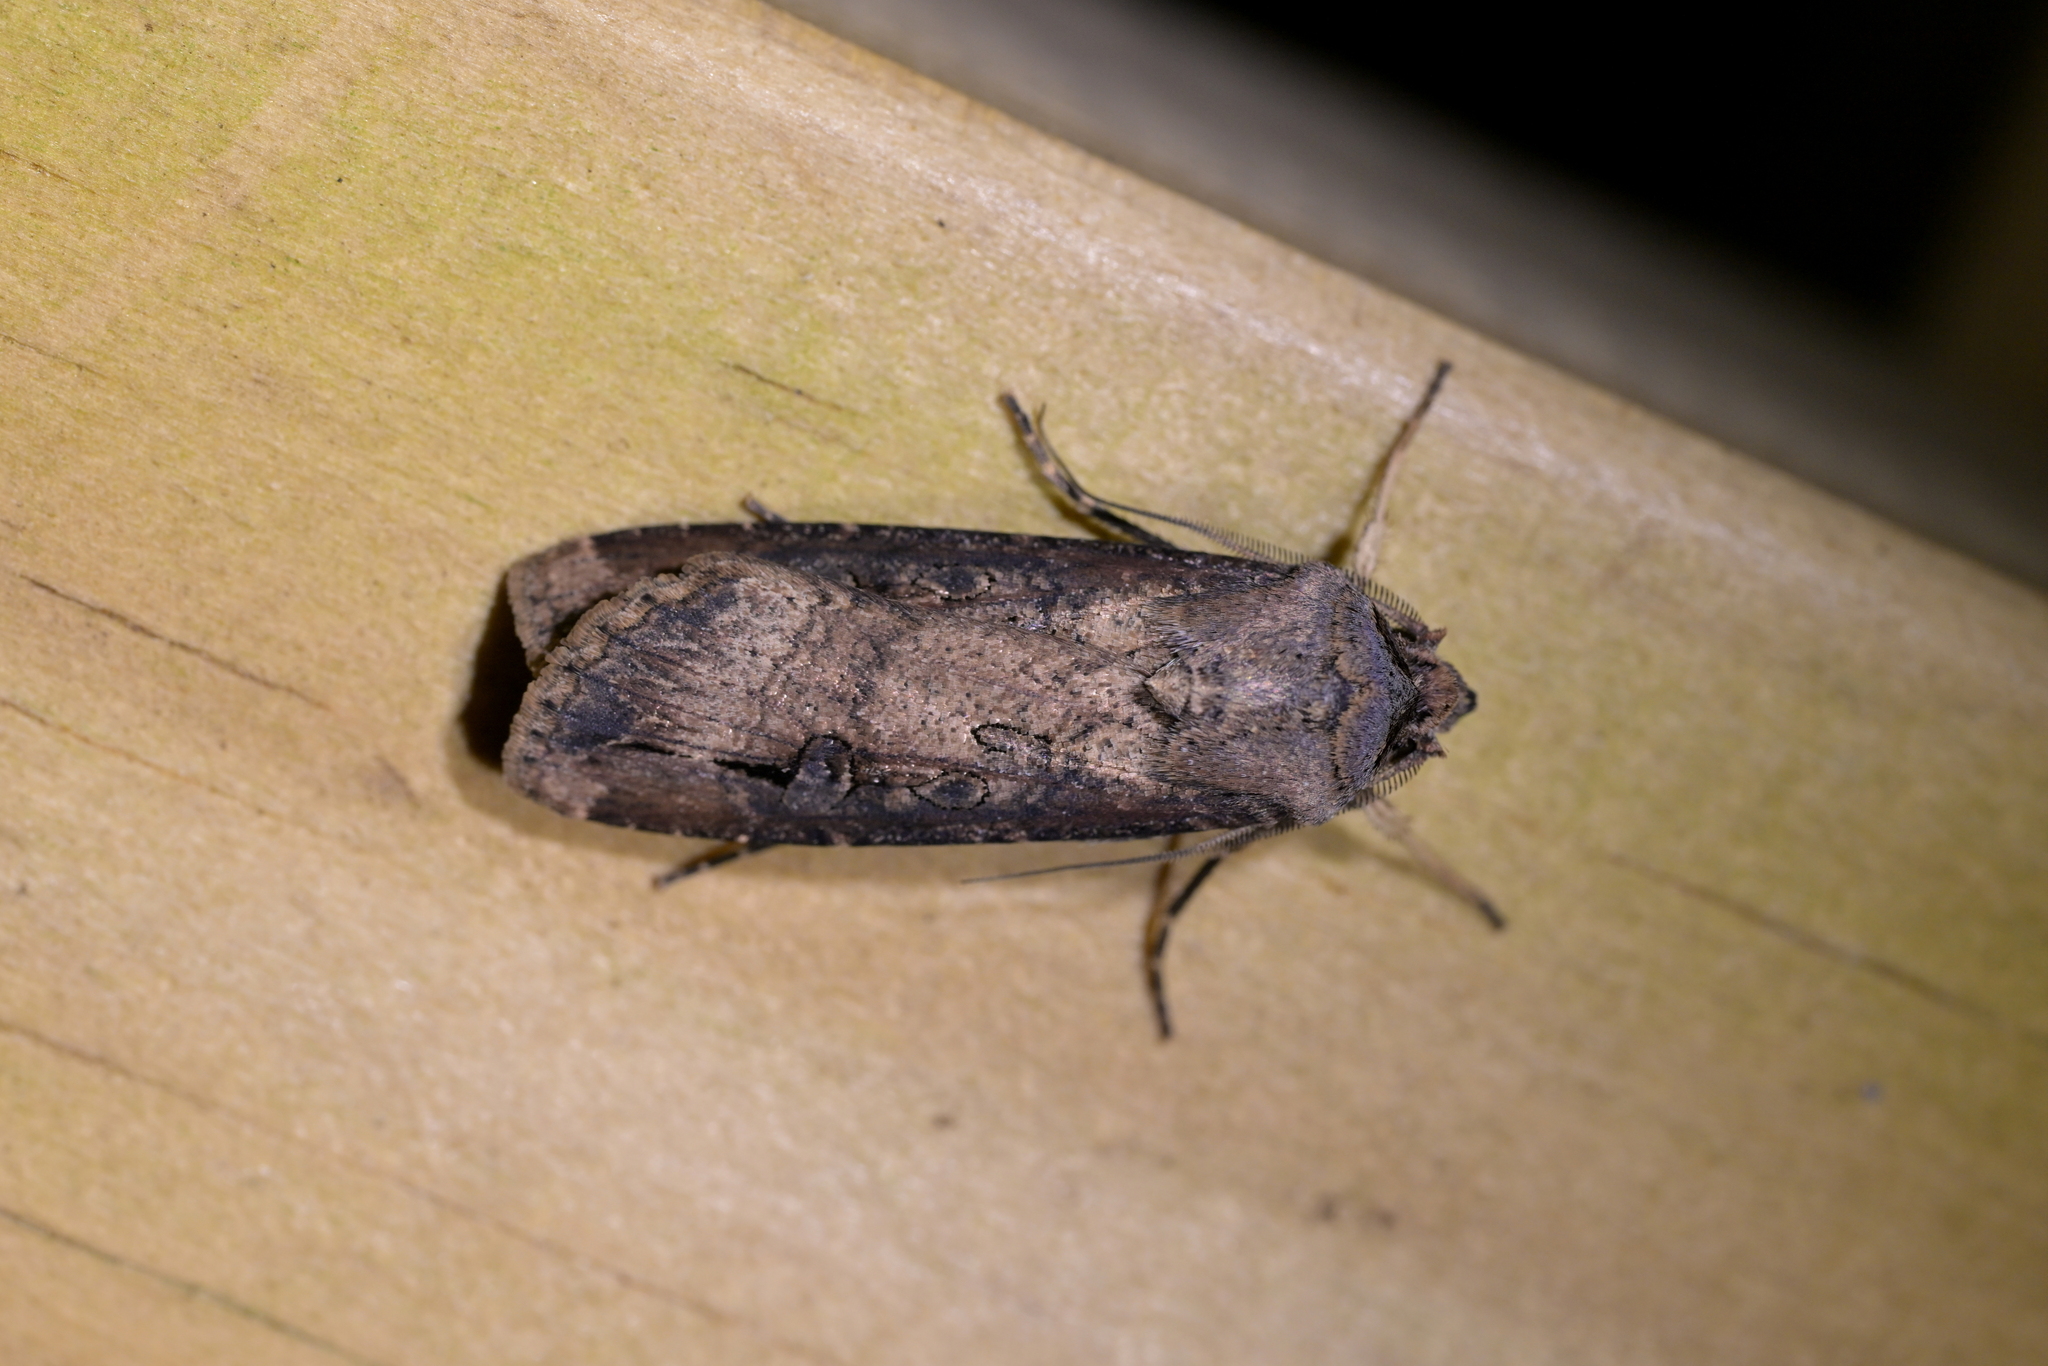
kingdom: Animalia
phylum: Arthropoda
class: Insecta
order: Lepidoptera
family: Noctuidae
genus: Agrotis
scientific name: Agrotis ipsilon
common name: Dark sword-grass
